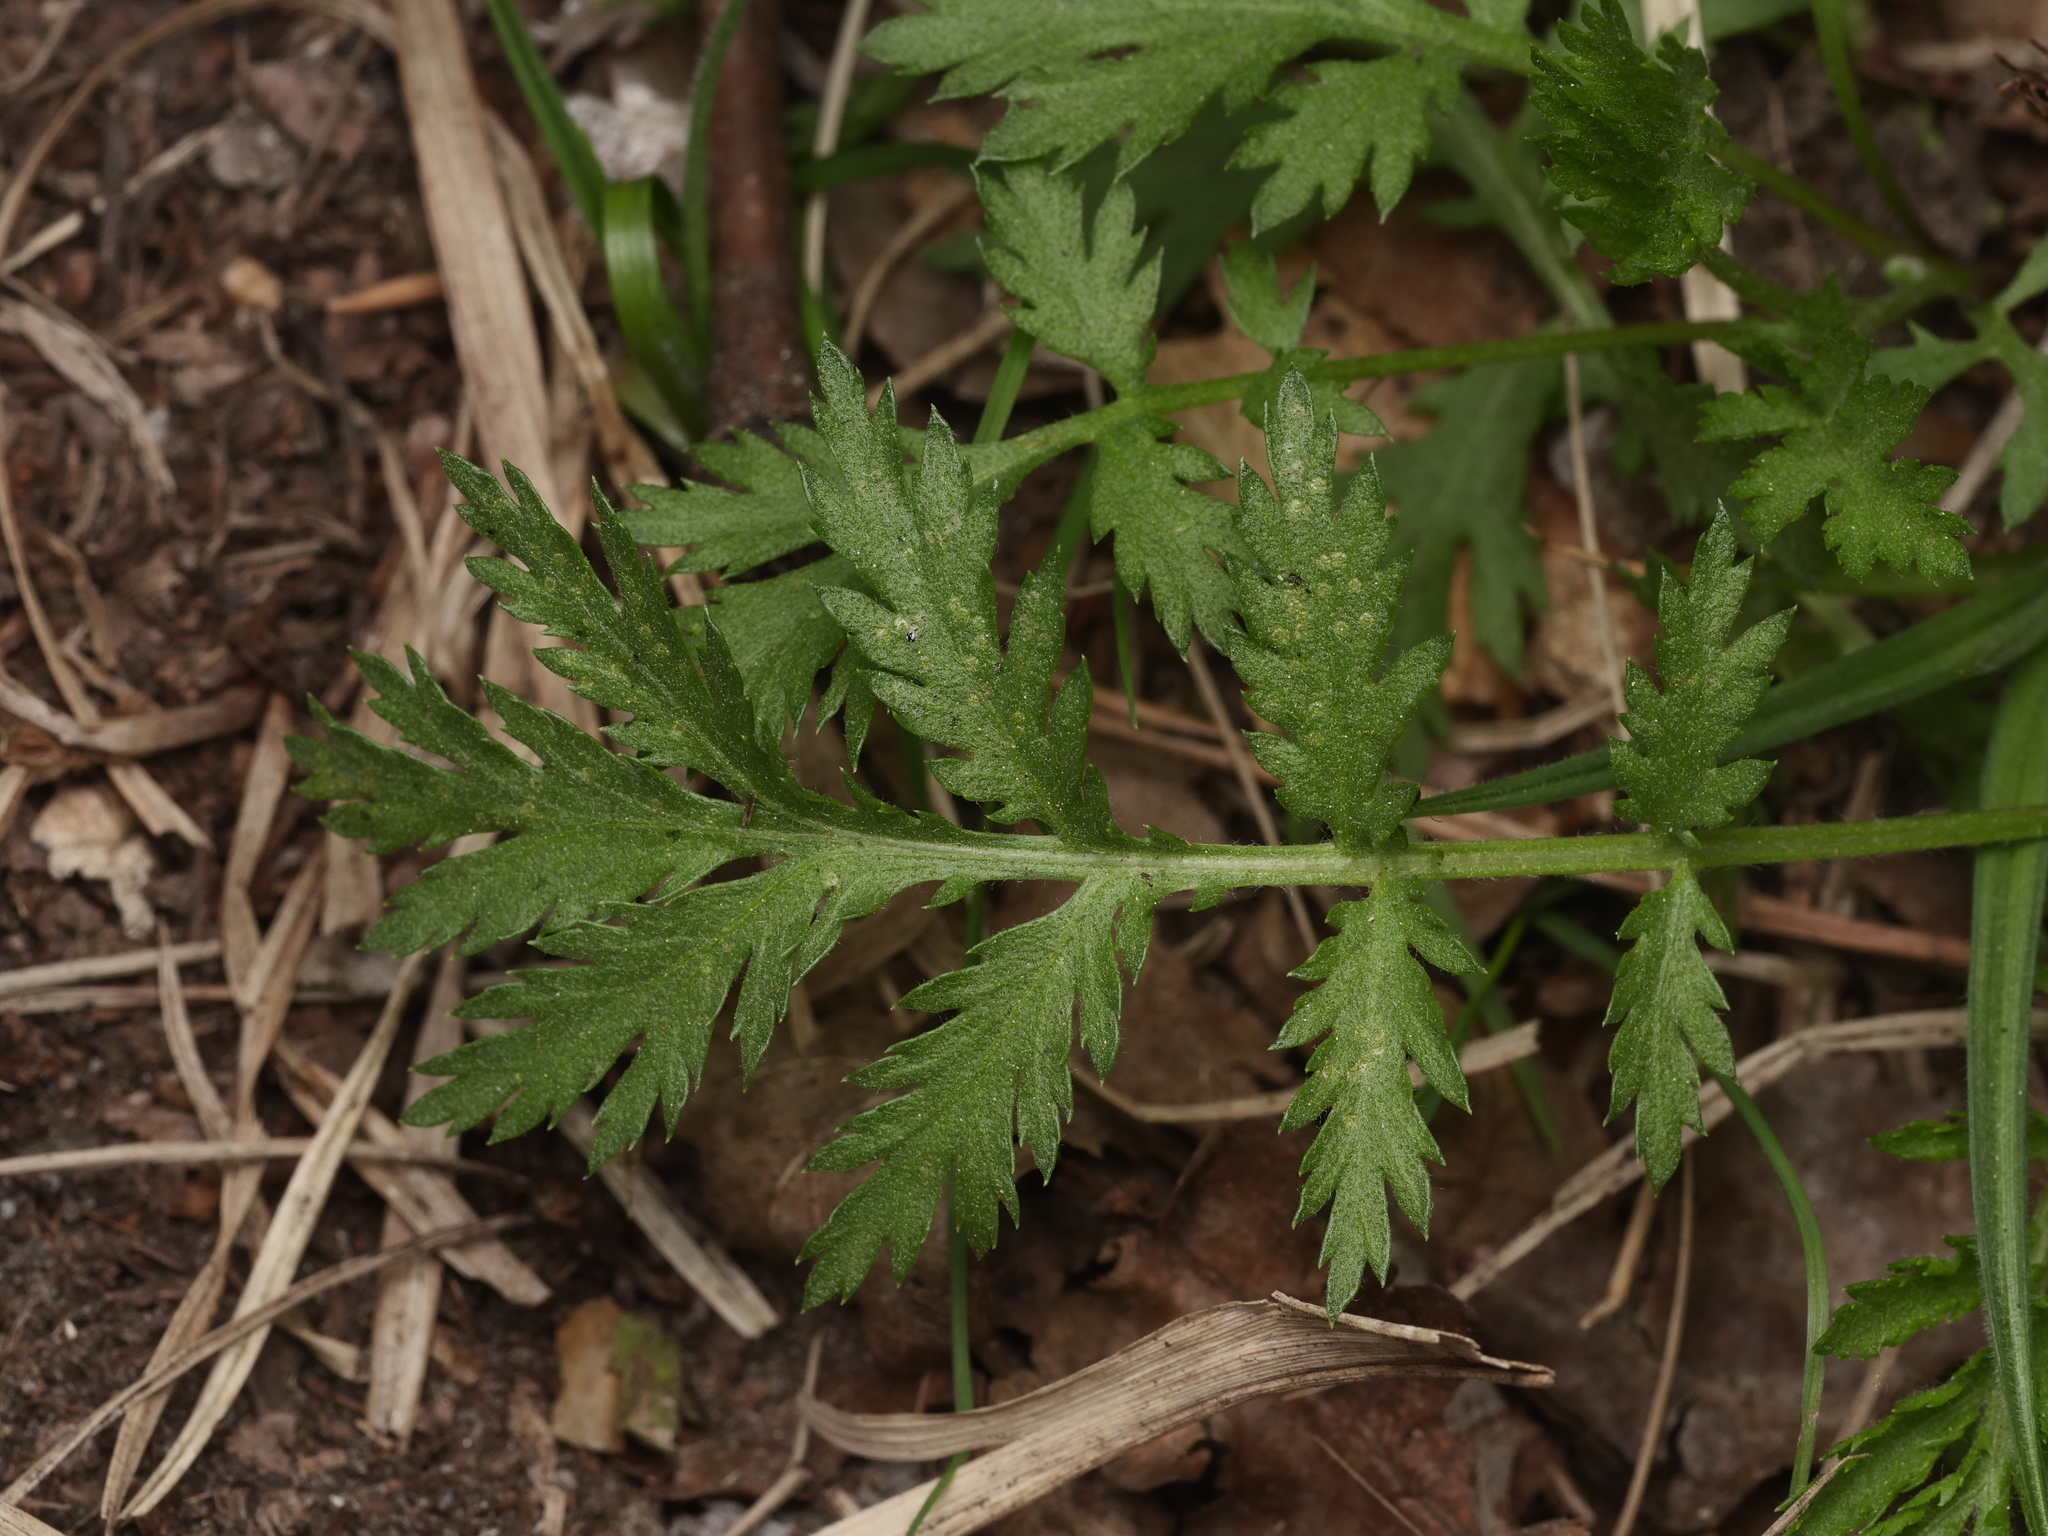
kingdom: Plantae
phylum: Tracheophyta
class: Magnoliopsida
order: Asterales
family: Asteraceae
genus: Tanacetum
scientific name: Tanacetum vulgare
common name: Common tansy
